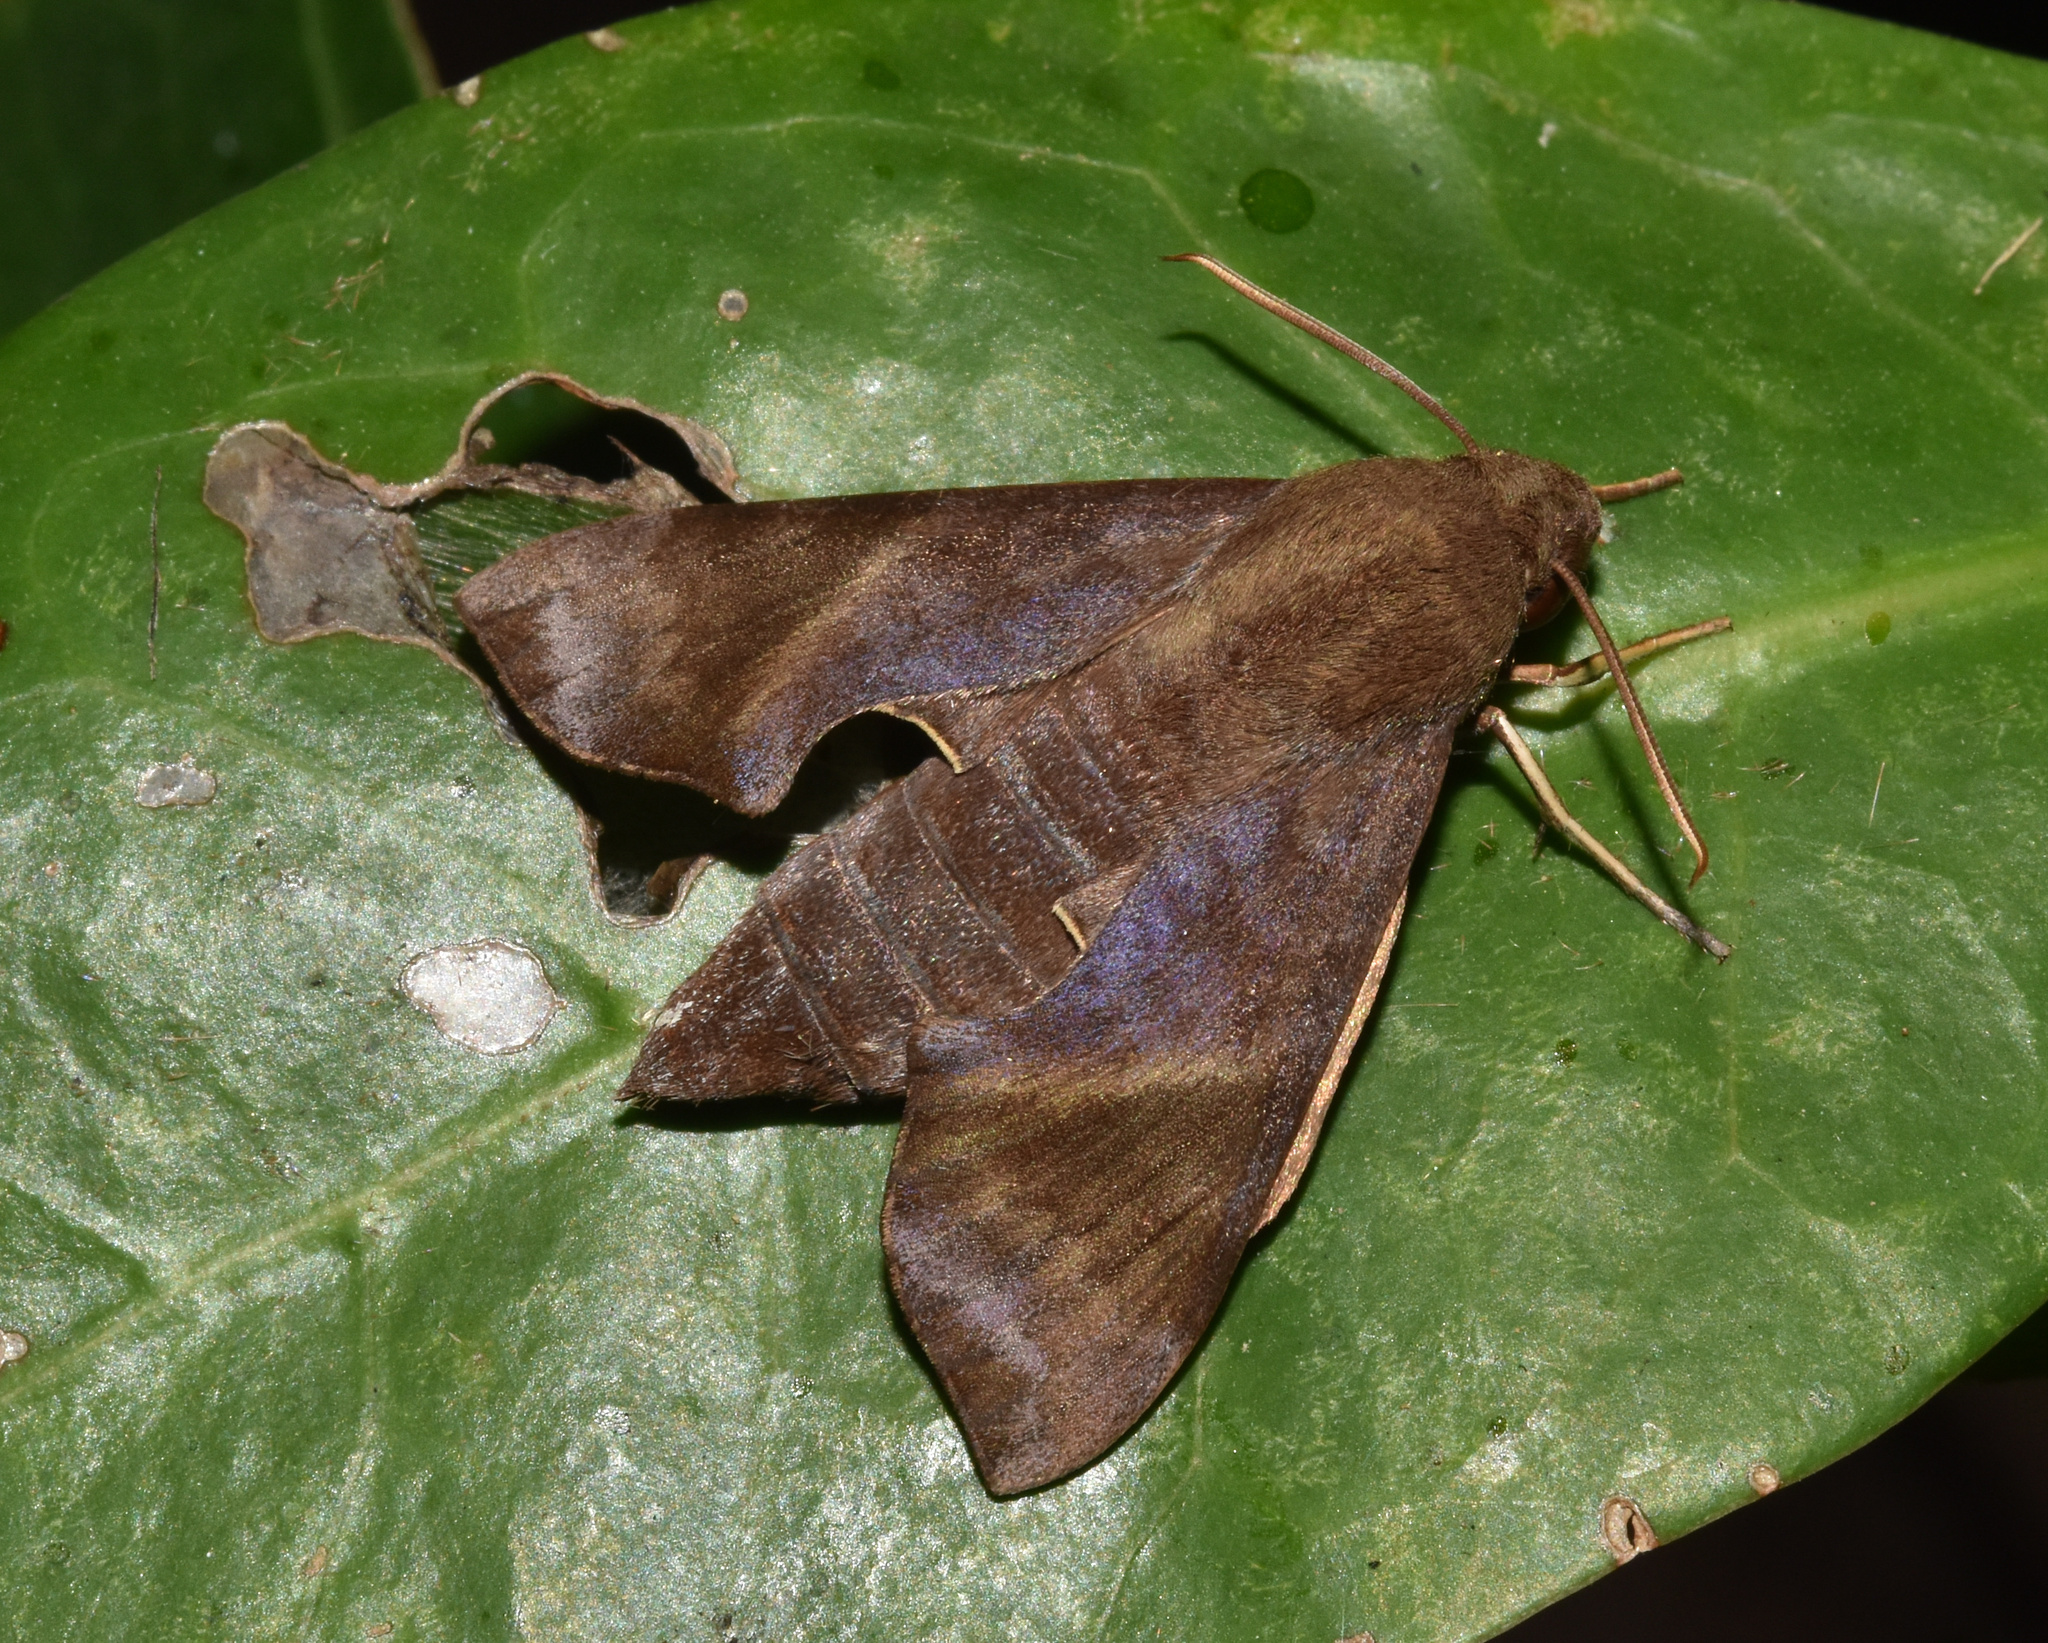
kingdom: Animalia
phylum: Arthropoda
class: Insecta
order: Lepidoptera
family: Sphingidae
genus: Temnora
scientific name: Temnora marginata
